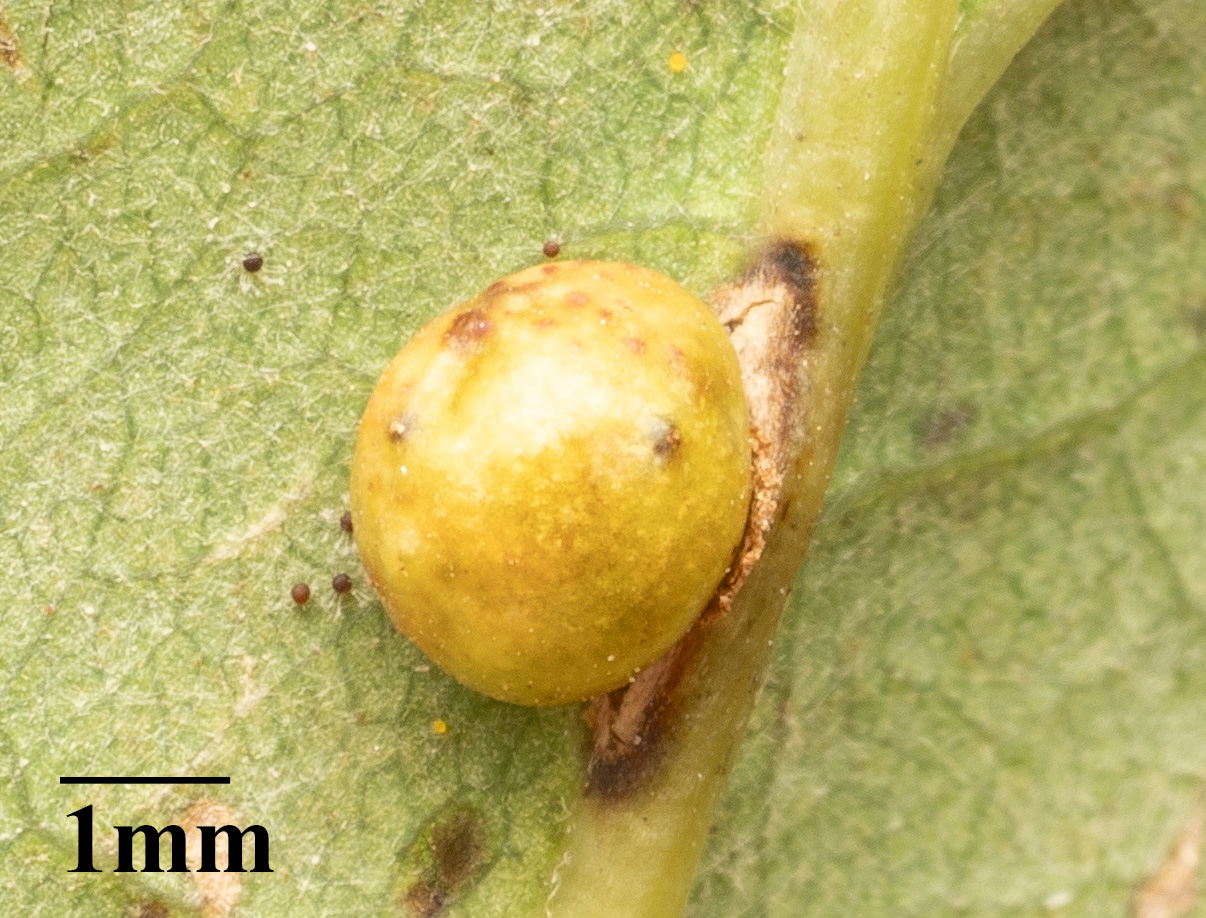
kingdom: Animalia
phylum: Arthropoda
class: Insecta
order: Hymenoptera
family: Cynipidae
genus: Neuroterus
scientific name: Neuroterus anthracinus
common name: Oyster gall
